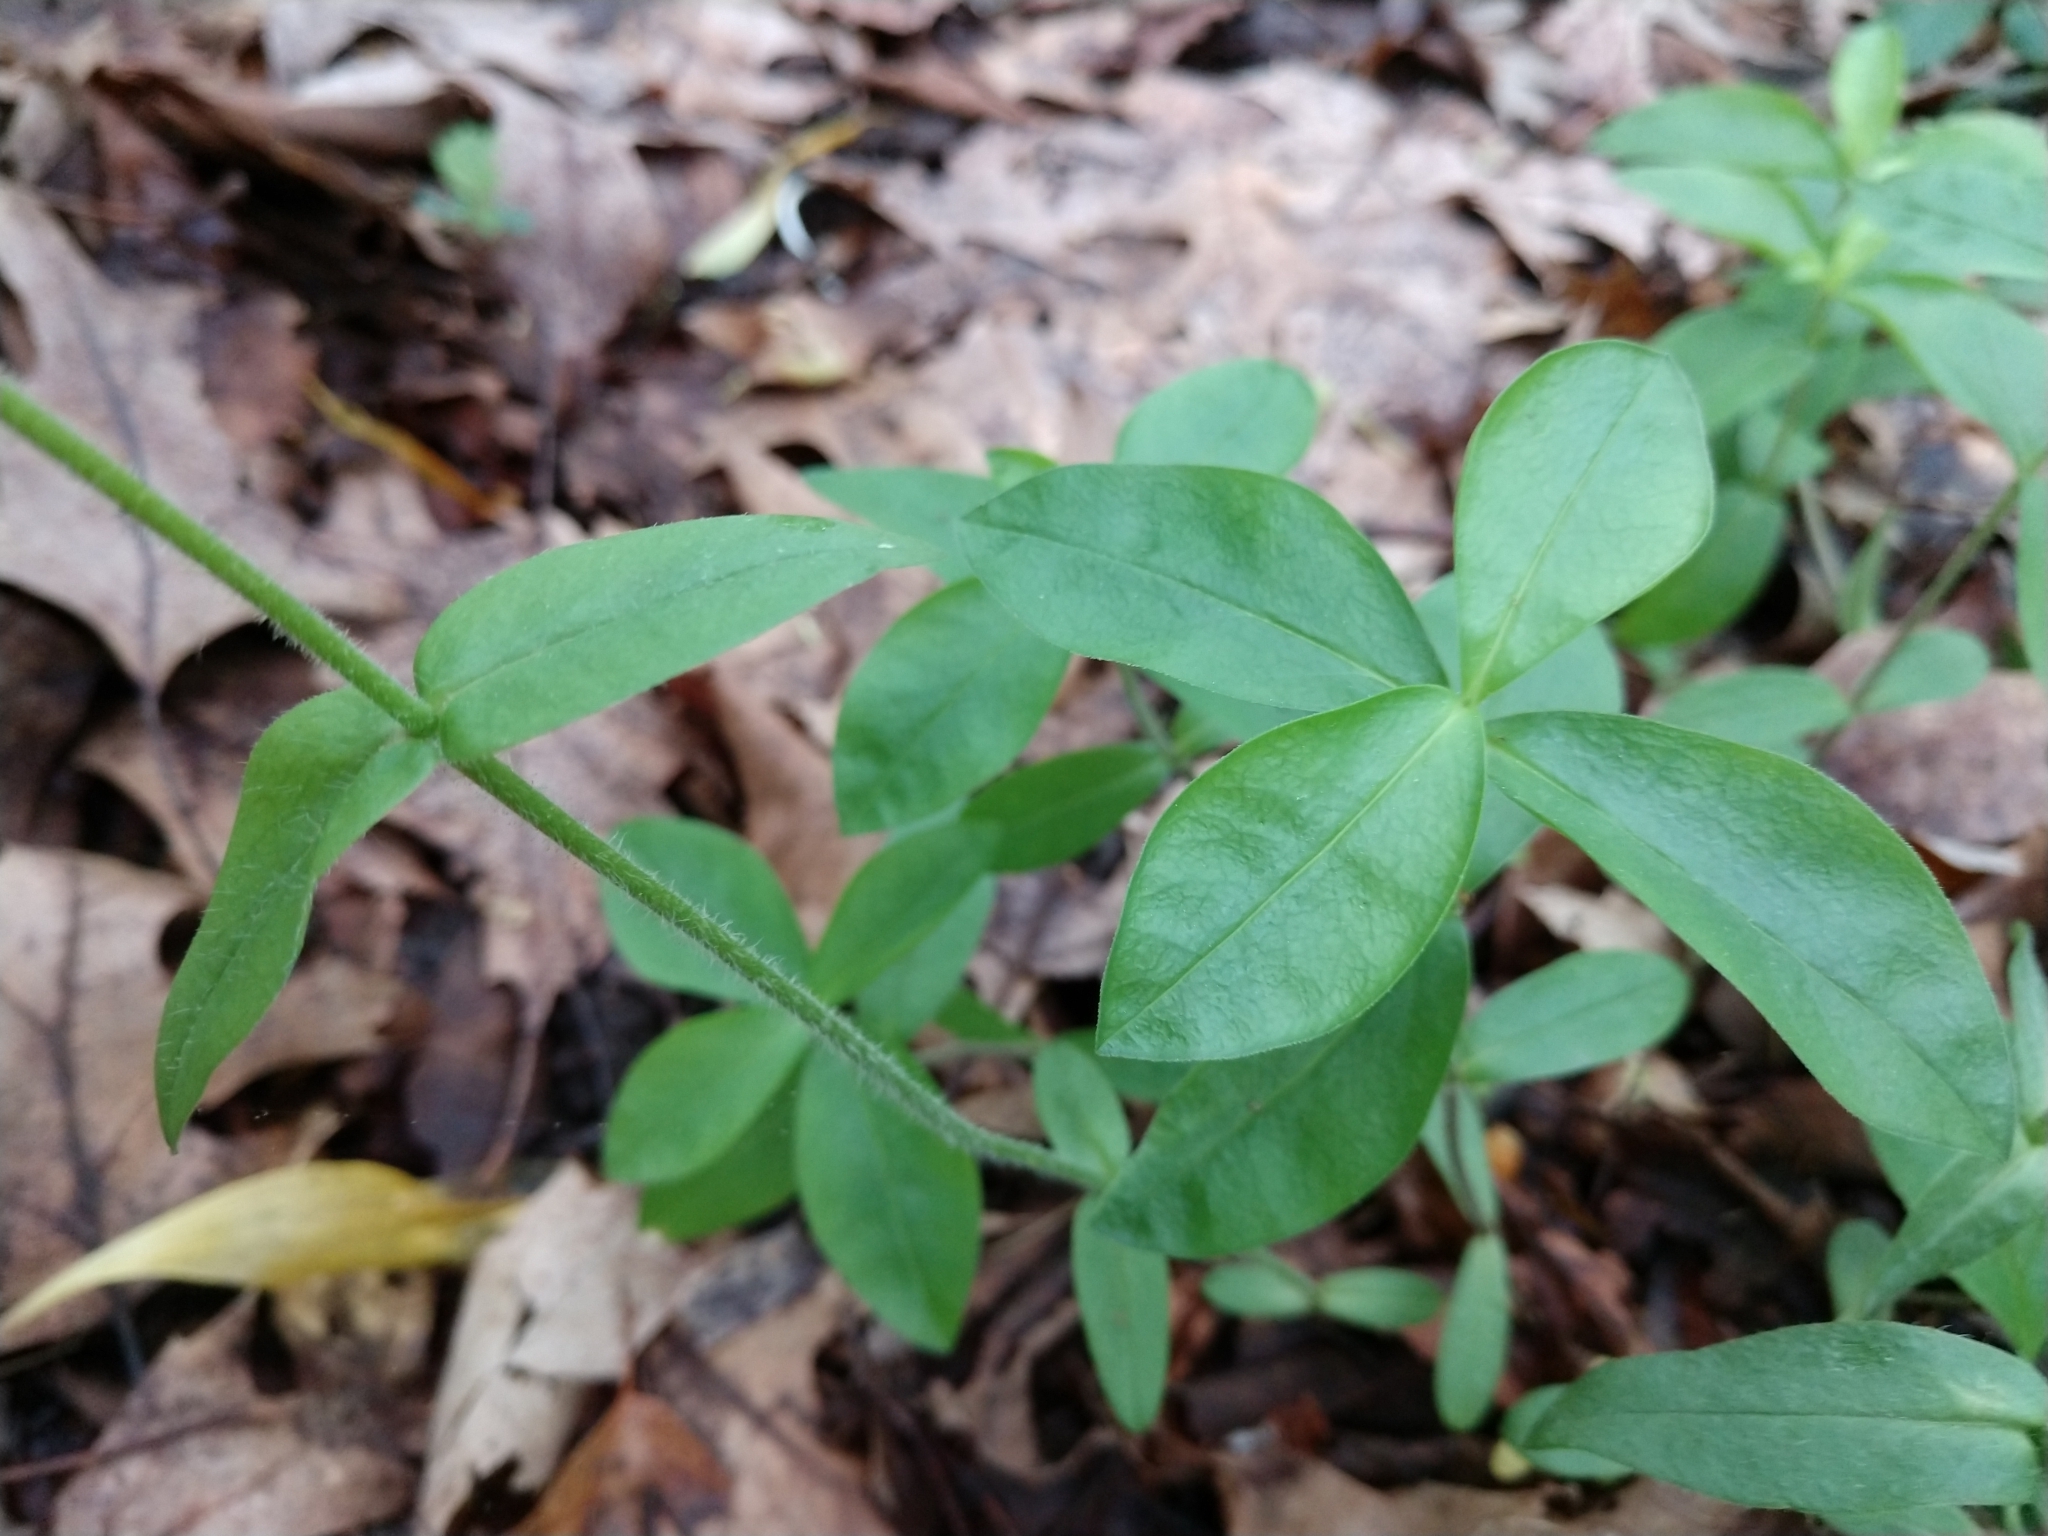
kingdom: Plantae
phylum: Tracheophyta
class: Magnoliopsida
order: Ericales
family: Polemoniaceae
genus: Phlox
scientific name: Phlox divaricata
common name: Blue phlox
